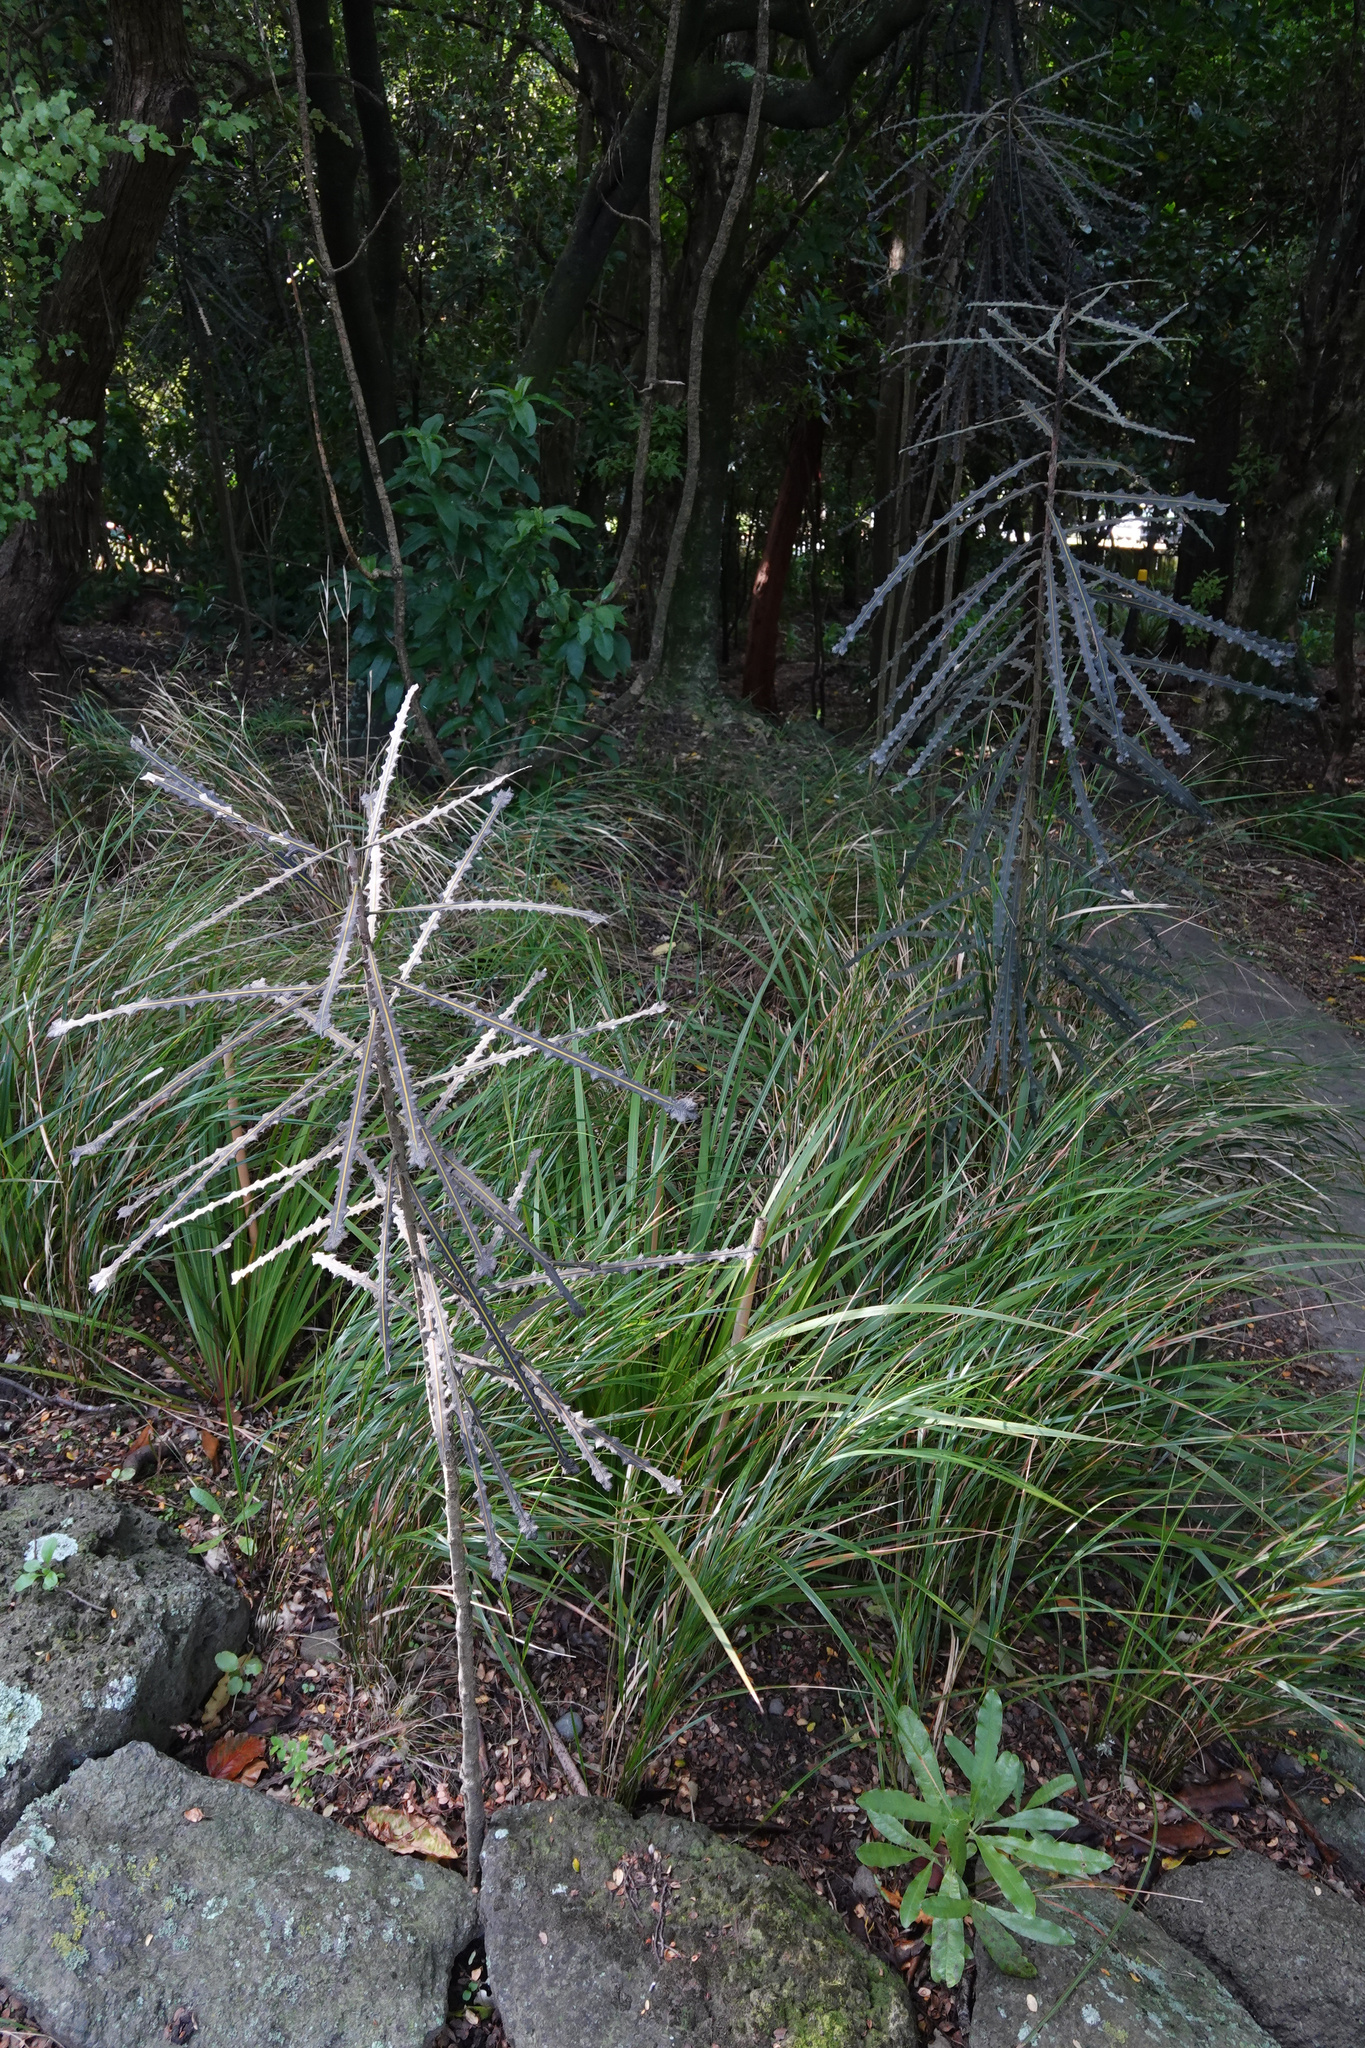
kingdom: Plantae
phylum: Tracheophyta
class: Magnoliopsida
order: Apiales
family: Araliaceae
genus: Pseudopanax
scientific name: Pseudopanax ferox
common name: Fierce lancewood
